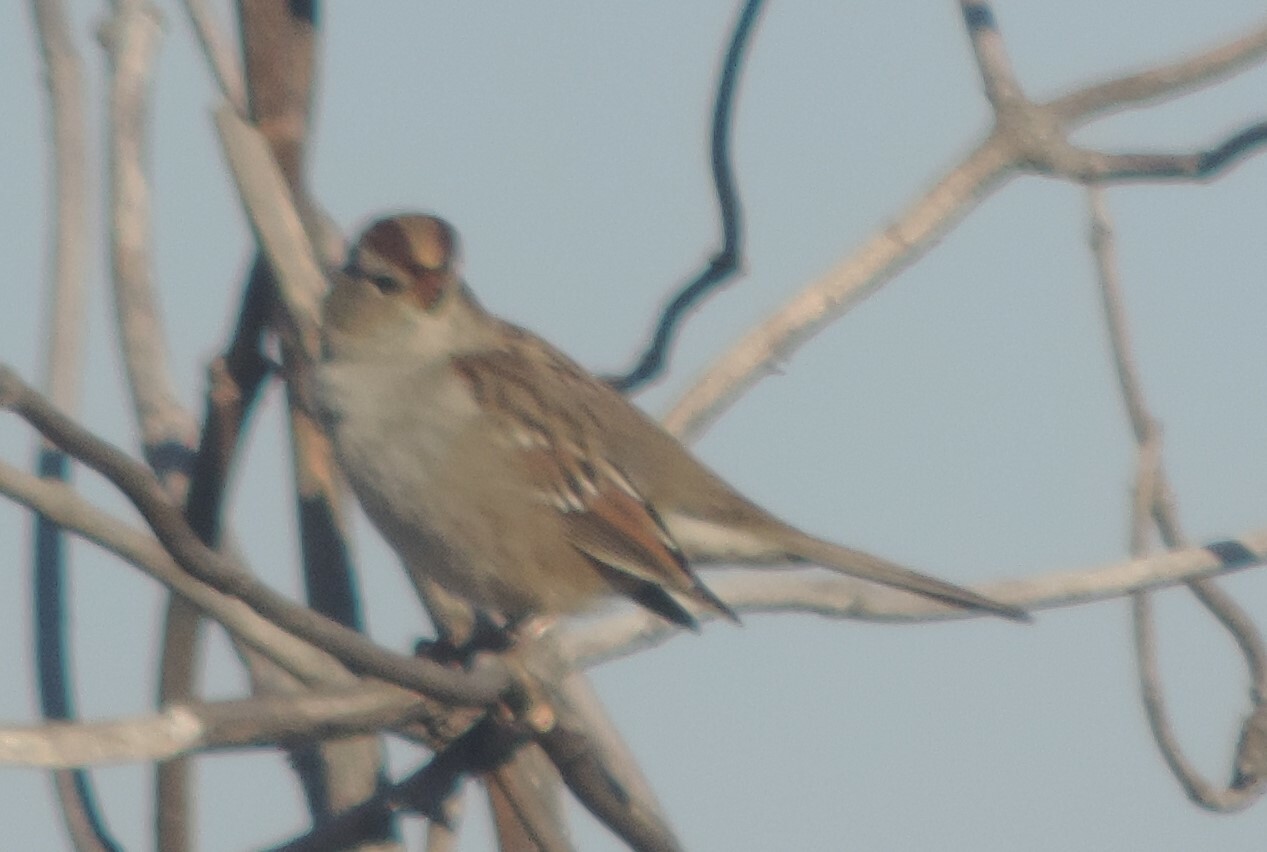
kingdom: Animalia
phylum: Chordata
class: Aves
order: Passeriformes
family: Passerellidae
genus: Zonotrichia
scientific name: Zonotrichia leucophrys
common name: White-crowned sparrow
